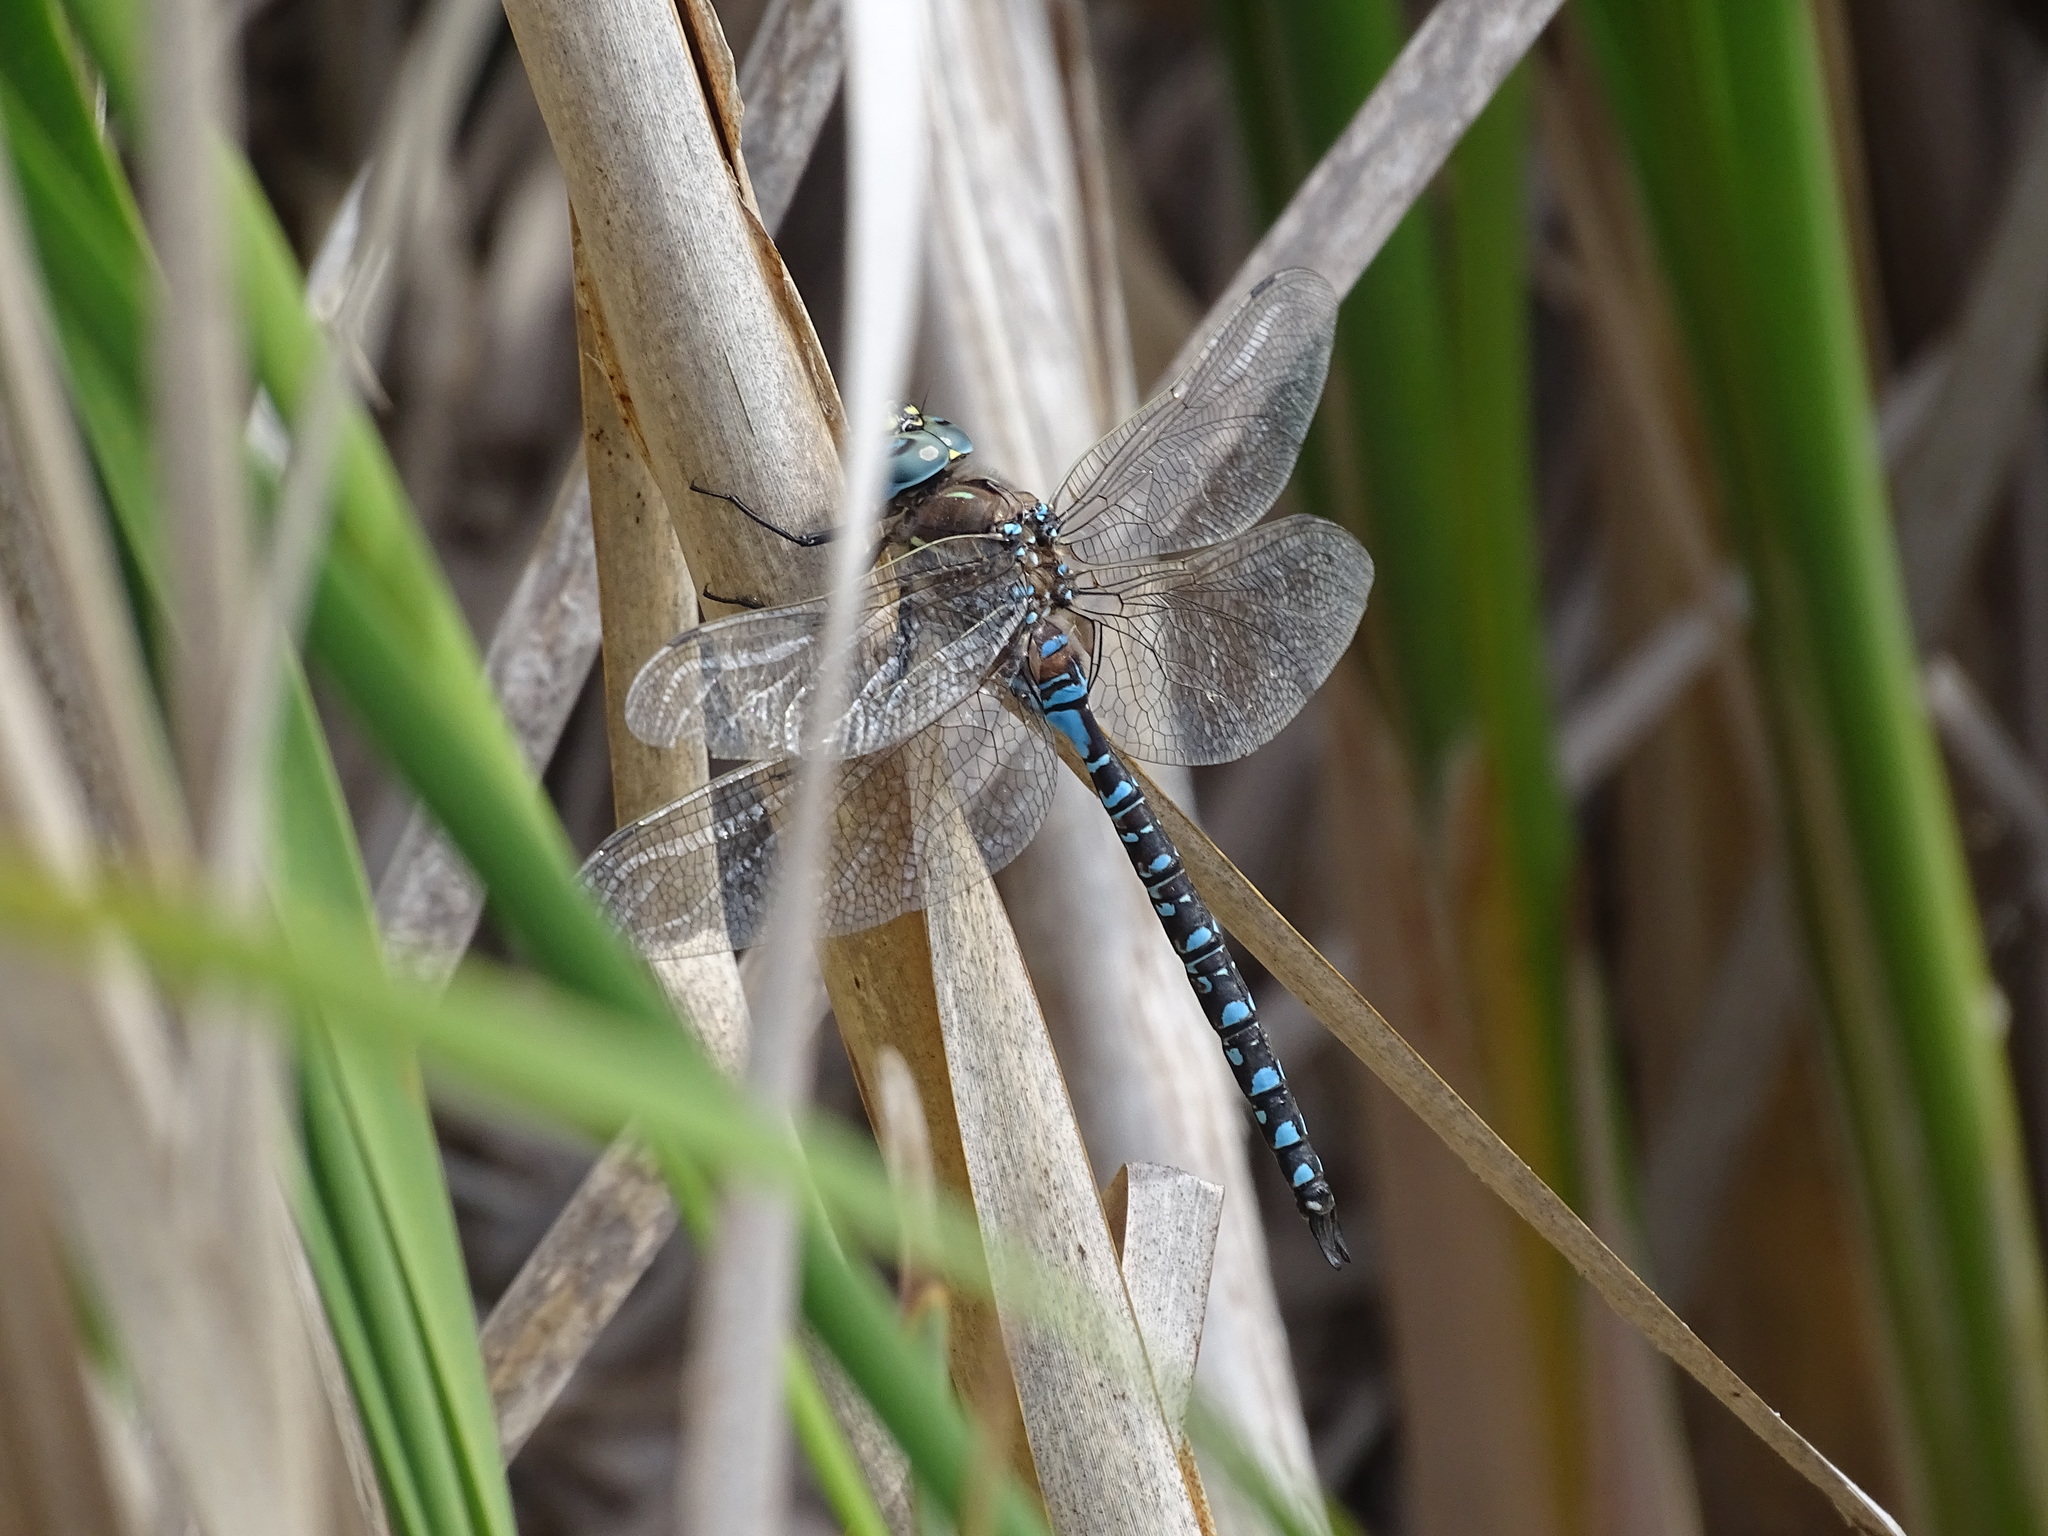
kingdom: Animalia
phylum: Arthropoda
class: Insecta
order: Odonata
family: Aeshnidae
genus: Aeshna
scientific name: Aeshna interrupta
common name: Variable darner
